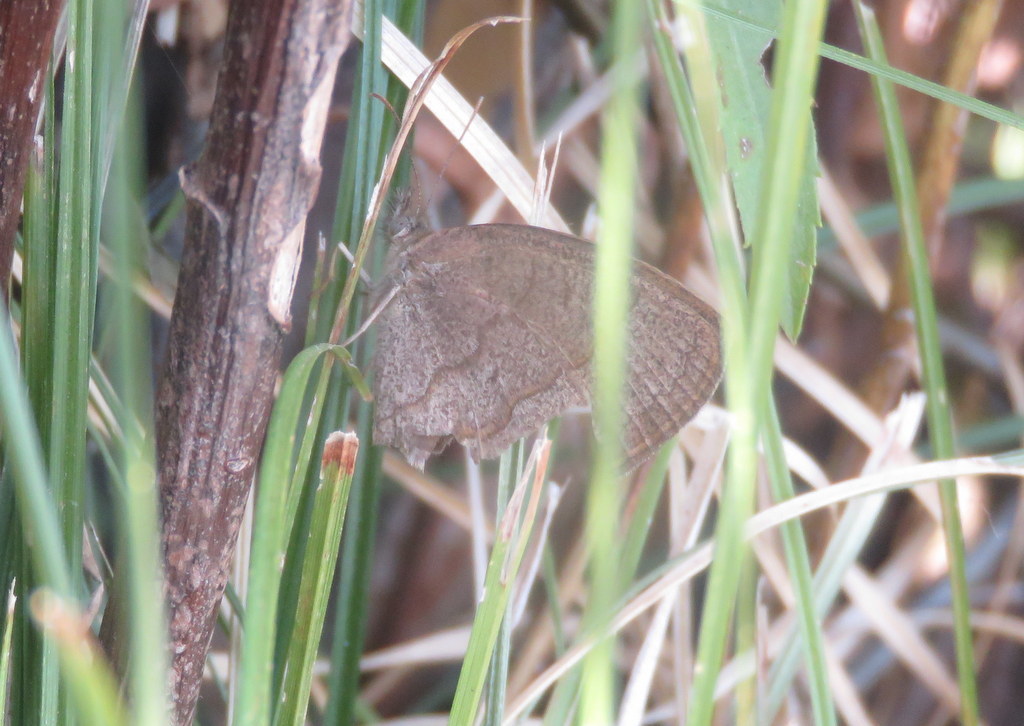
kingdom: Animalia
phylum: Arthropoda
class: Insecta
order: Lepidoptera
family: Nymphalidae
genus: Yphthimoides
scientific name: Yphthimoides celmis
